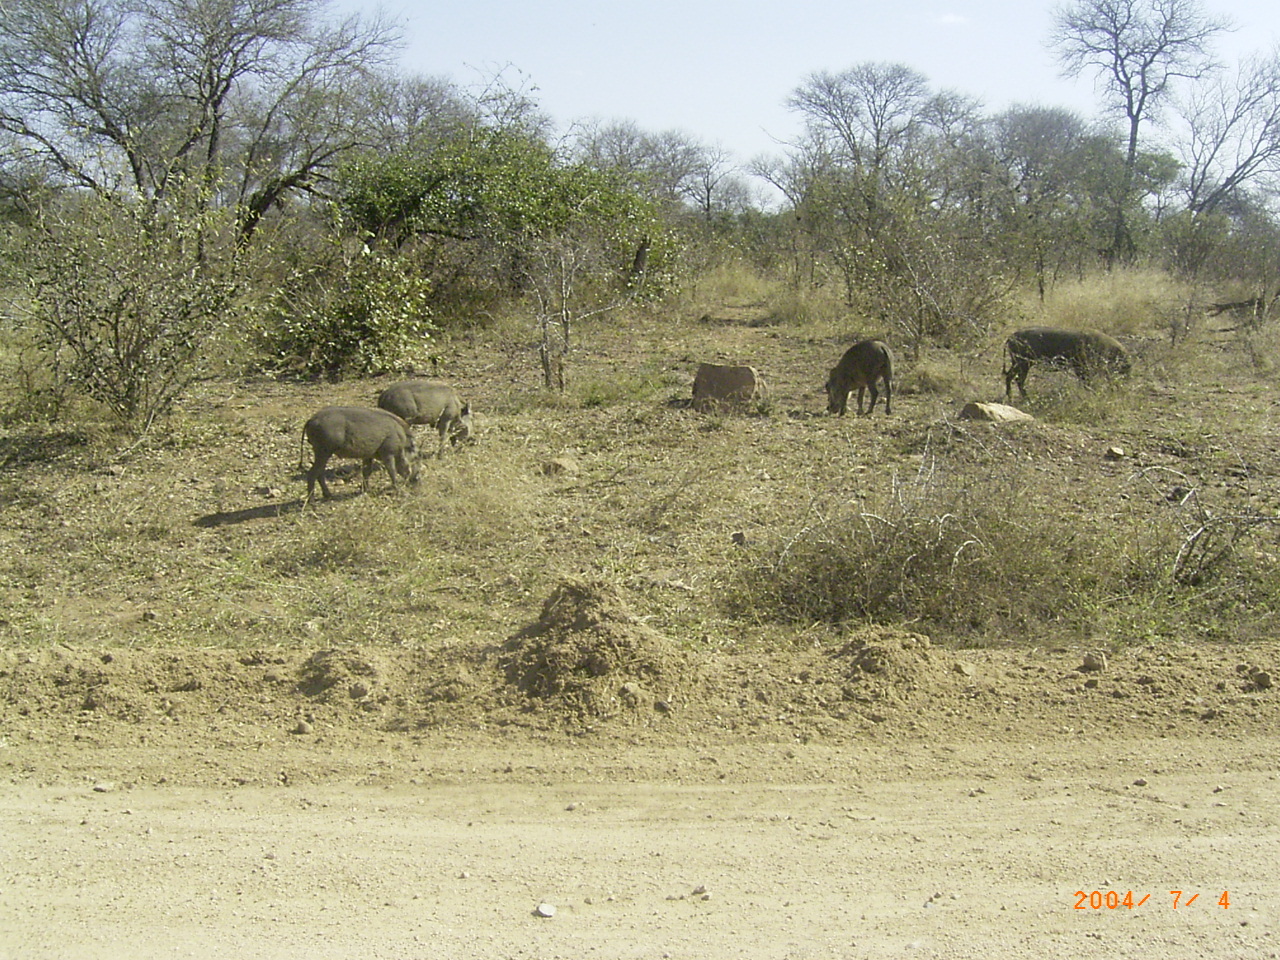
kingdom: Animalia
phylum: Chordata
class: Mammalia
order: Artiodactyla
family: Suidae
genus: Phacochoerus
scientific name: Phacochoerus africanus
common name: Common warthog
